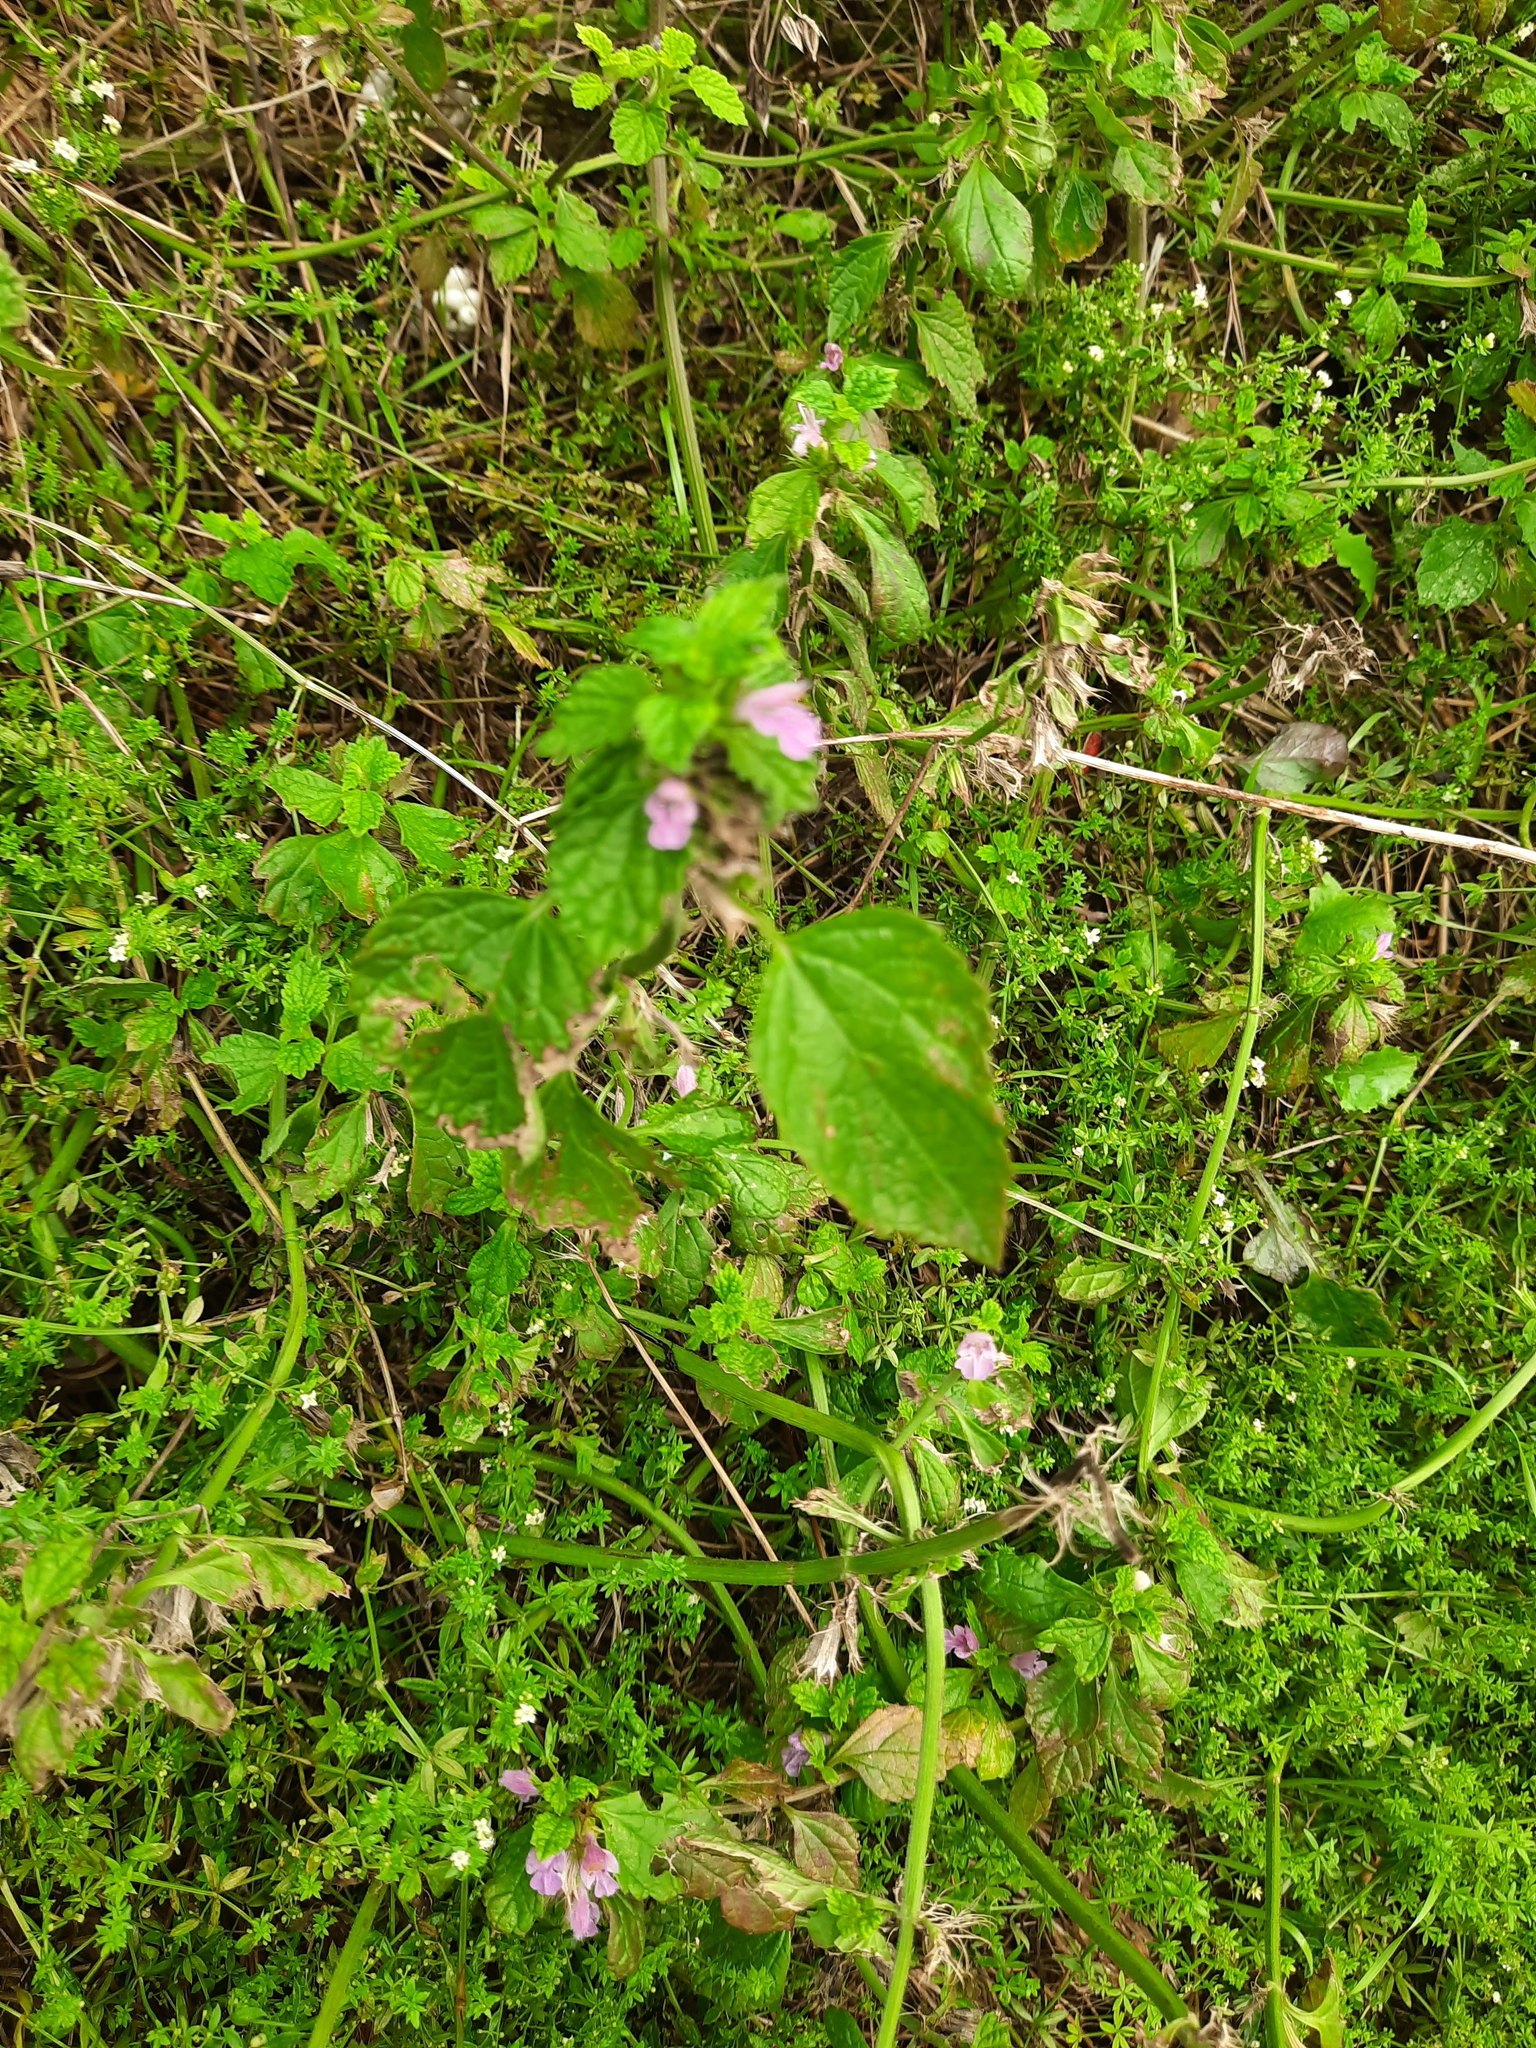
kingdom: Plantae
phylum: Tracheophyta
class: Magnoliopsida
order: Lamiales
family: Lamiaceae
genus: Ballota
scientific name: Ballota nigra
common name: Black horehound
